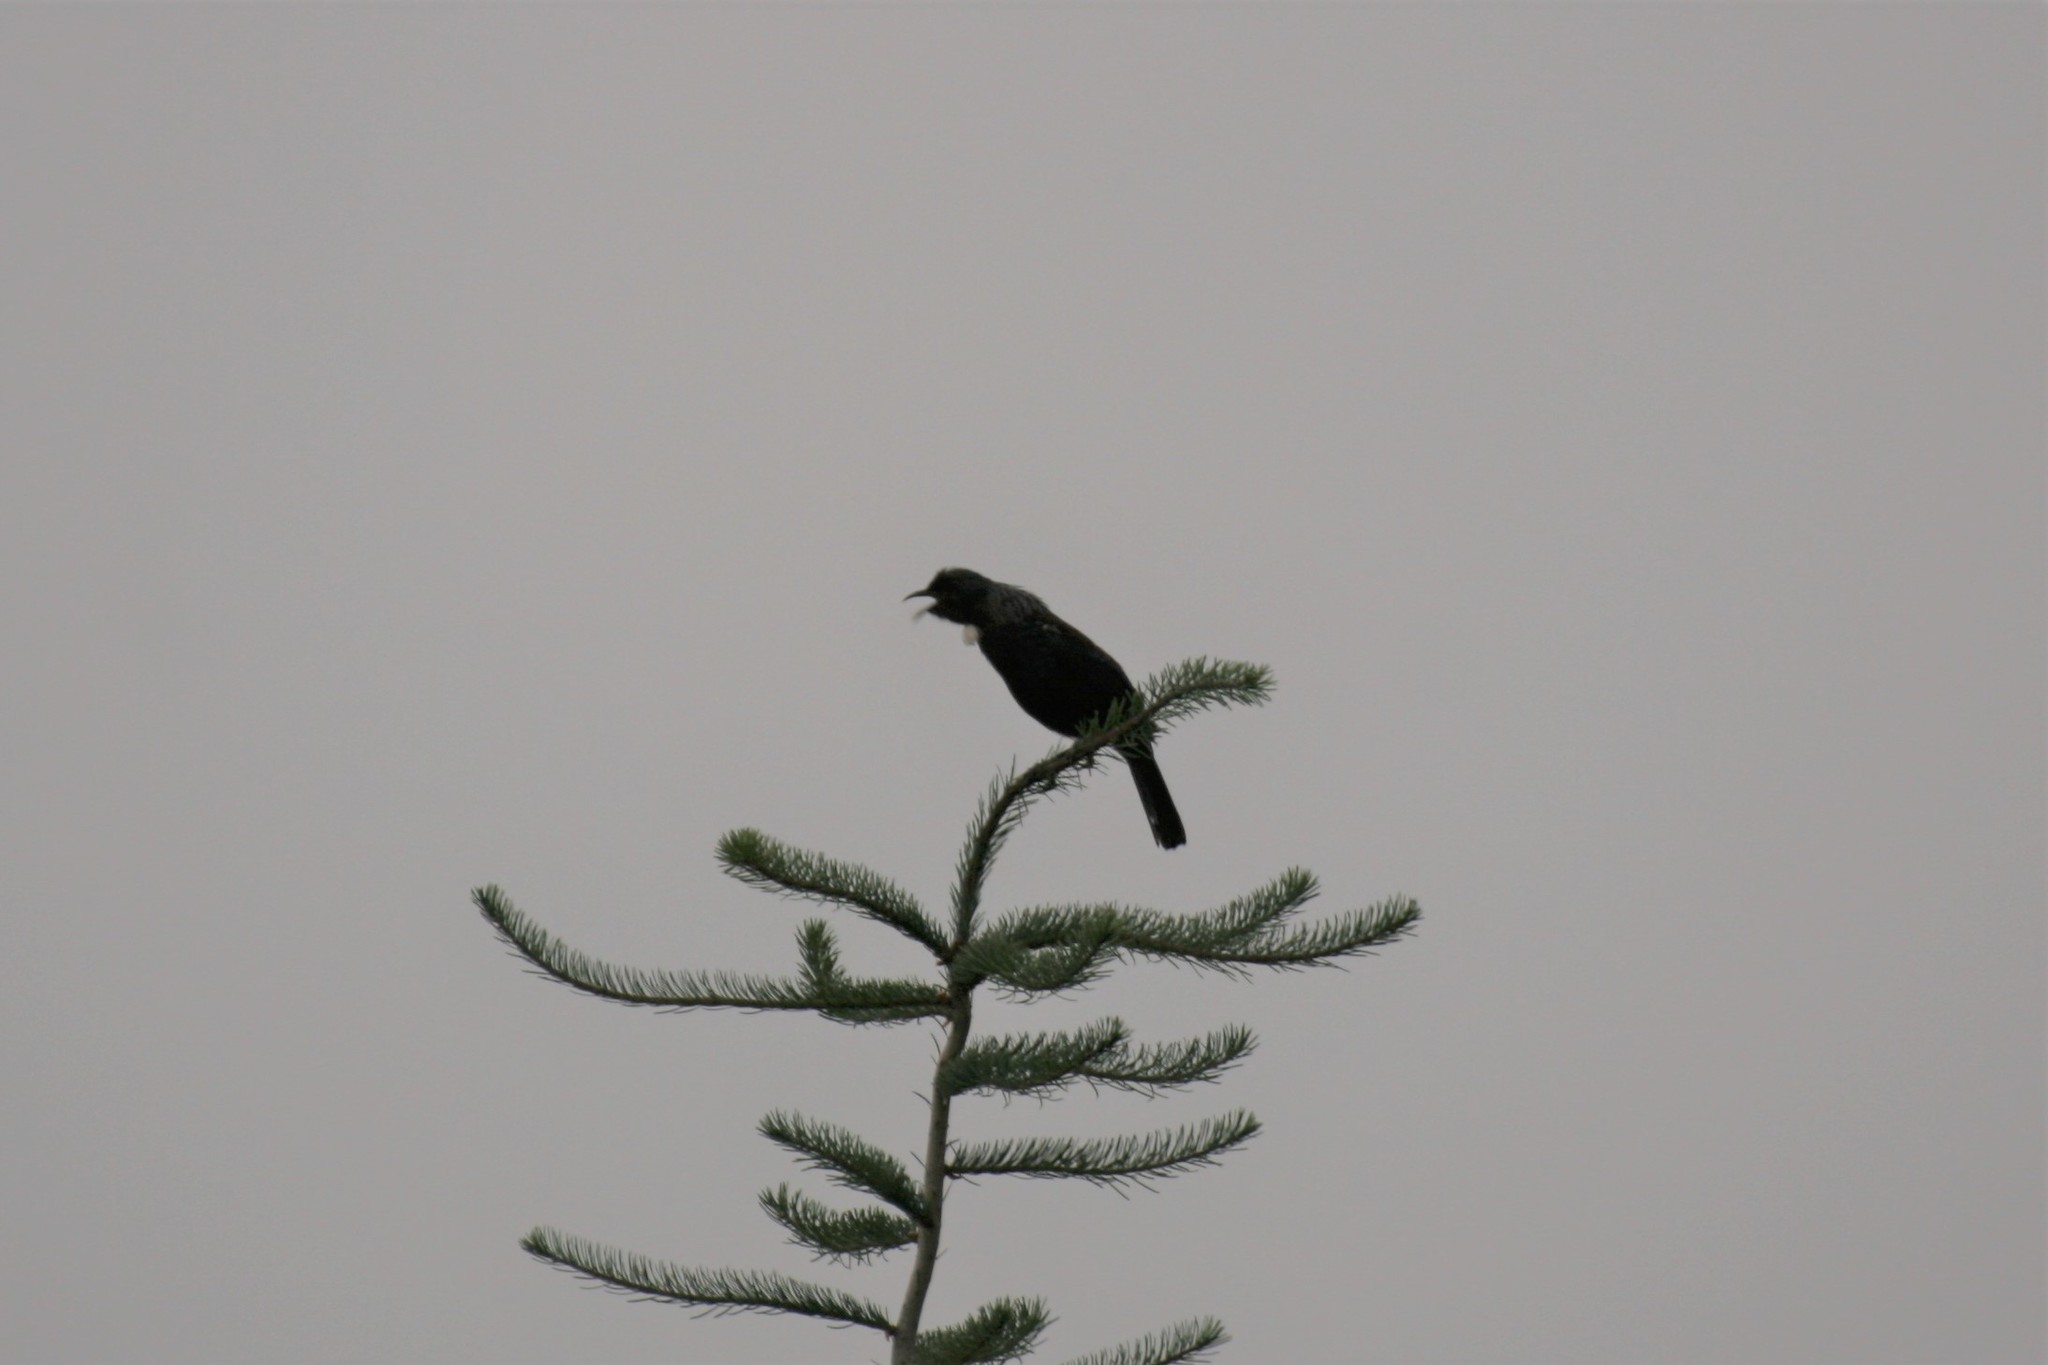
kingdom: Animalia
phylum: Chordata
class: Aves
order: Passeriformes
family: Meliphagidae
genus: Prosthemadera
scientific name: Prosthemadera novaeseelandiae
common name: Tui
